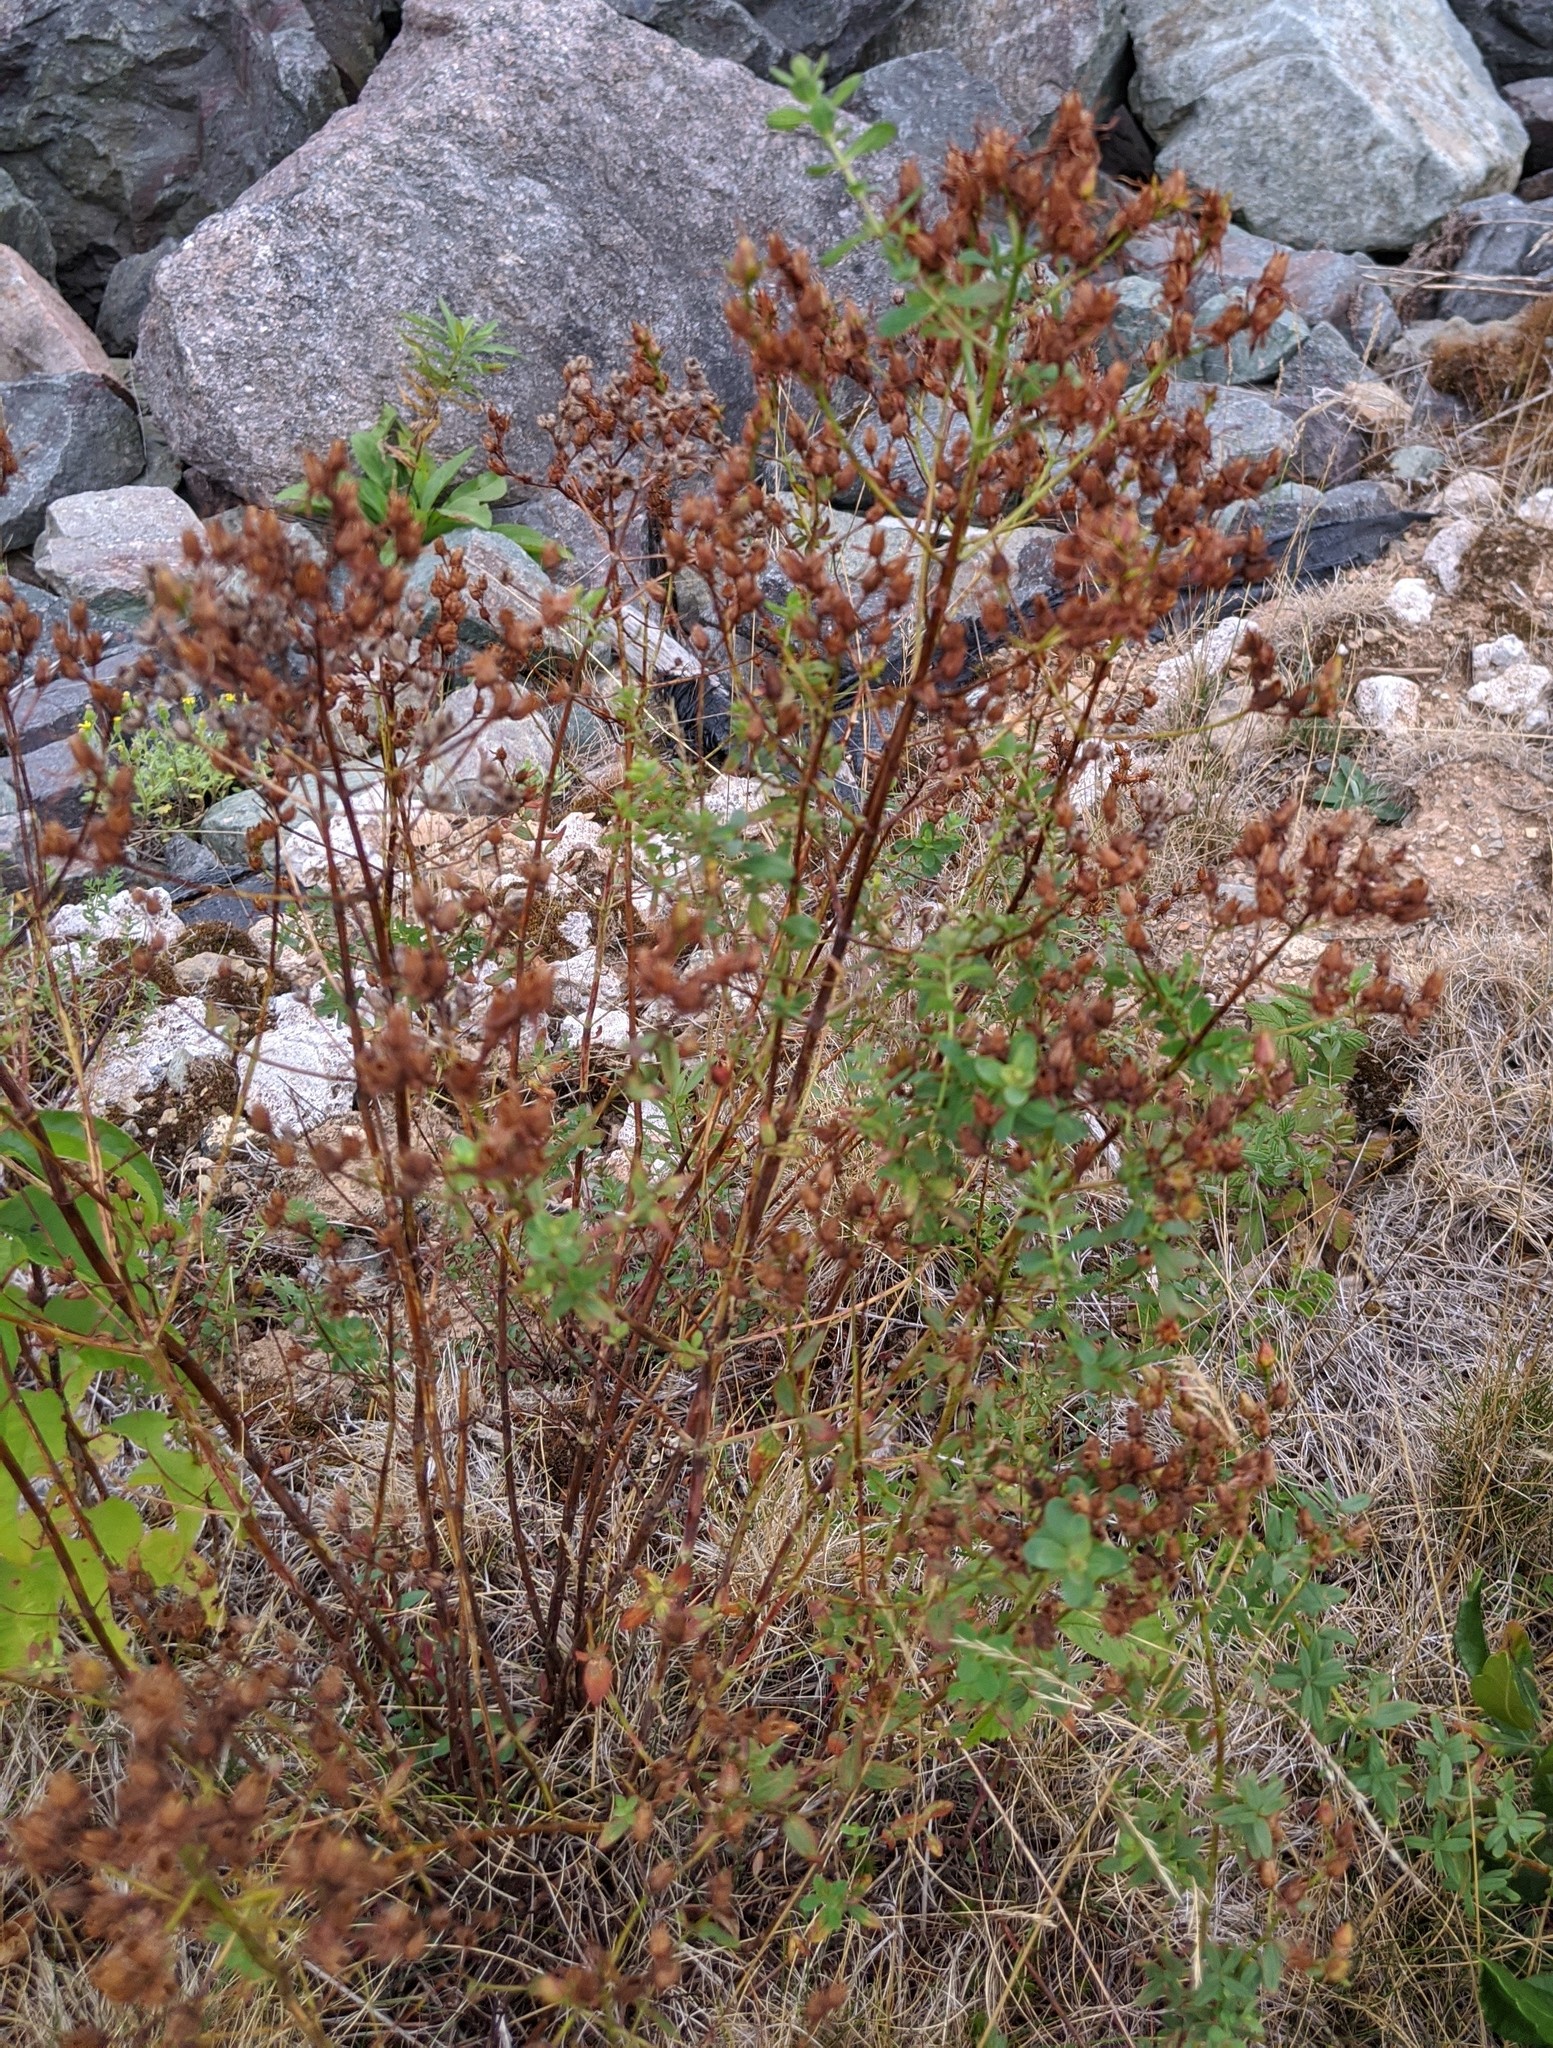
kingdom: Plantae
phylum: Tracheophyta
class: Magnoliopsida
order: Malpighiales
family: Hypericaceae
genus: Hypericum
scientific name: Hypericum perforatum
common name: Common st. johnswort
